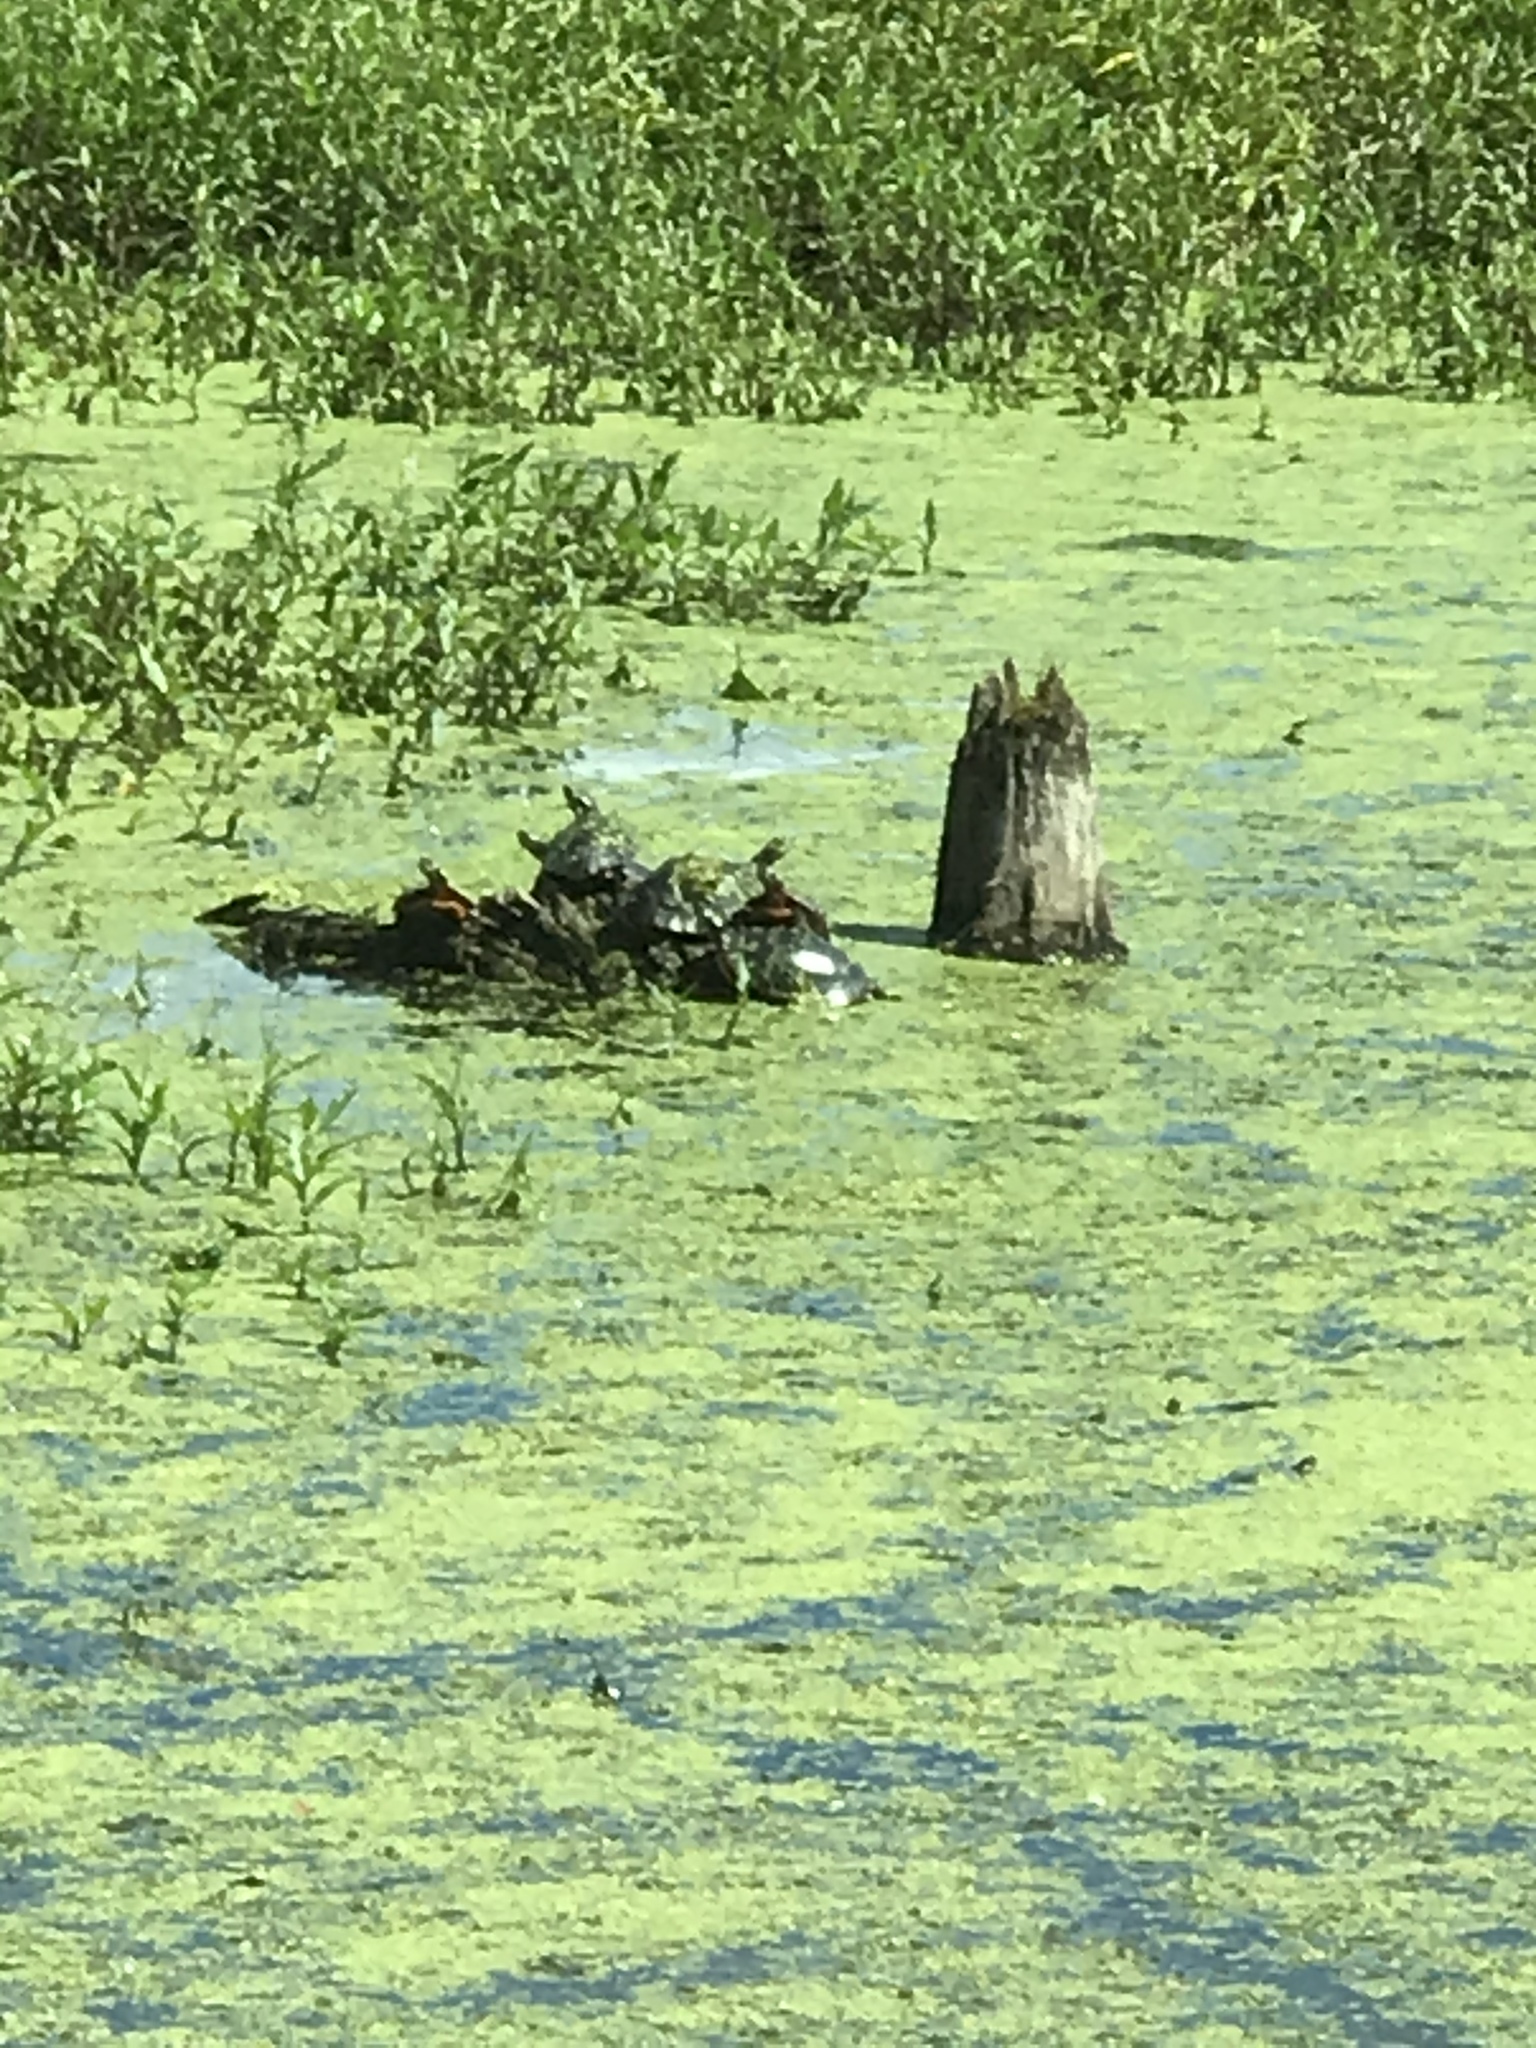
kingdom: Animalia
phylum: Chordata
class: Testudines
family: Emydidae
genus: Chrysemys
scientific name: Chrysemys picta
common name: Painted turtle
